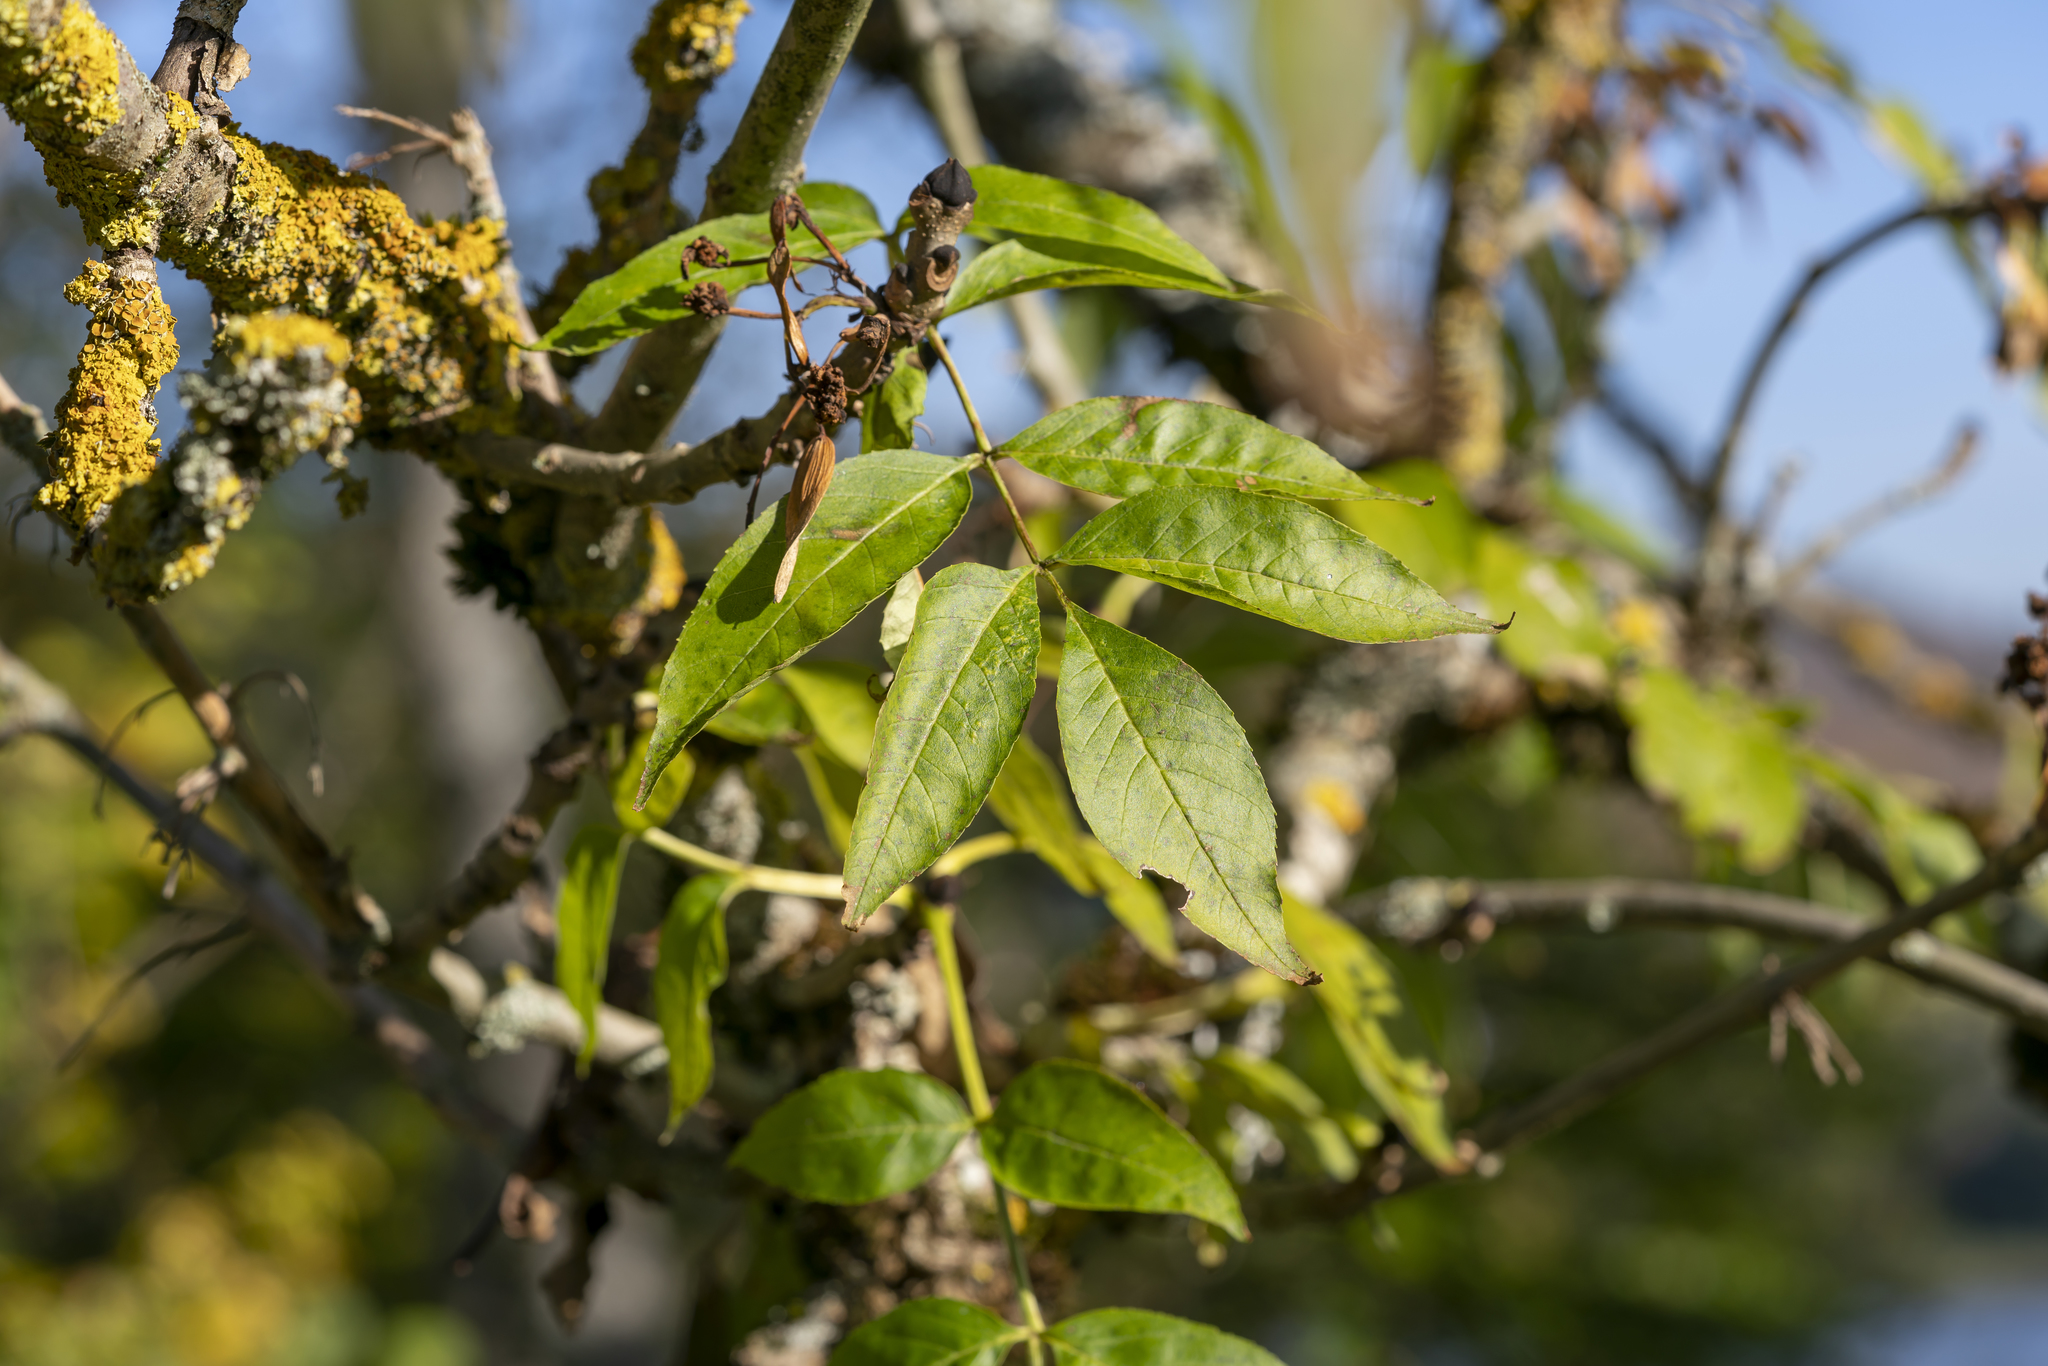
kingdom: Plantae
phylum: Tracheophyta
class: Magnoliopsida
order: Lamiales
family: Oleaceae
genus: Fraxinus
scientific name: Fraxinus excelsior
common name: European ash
